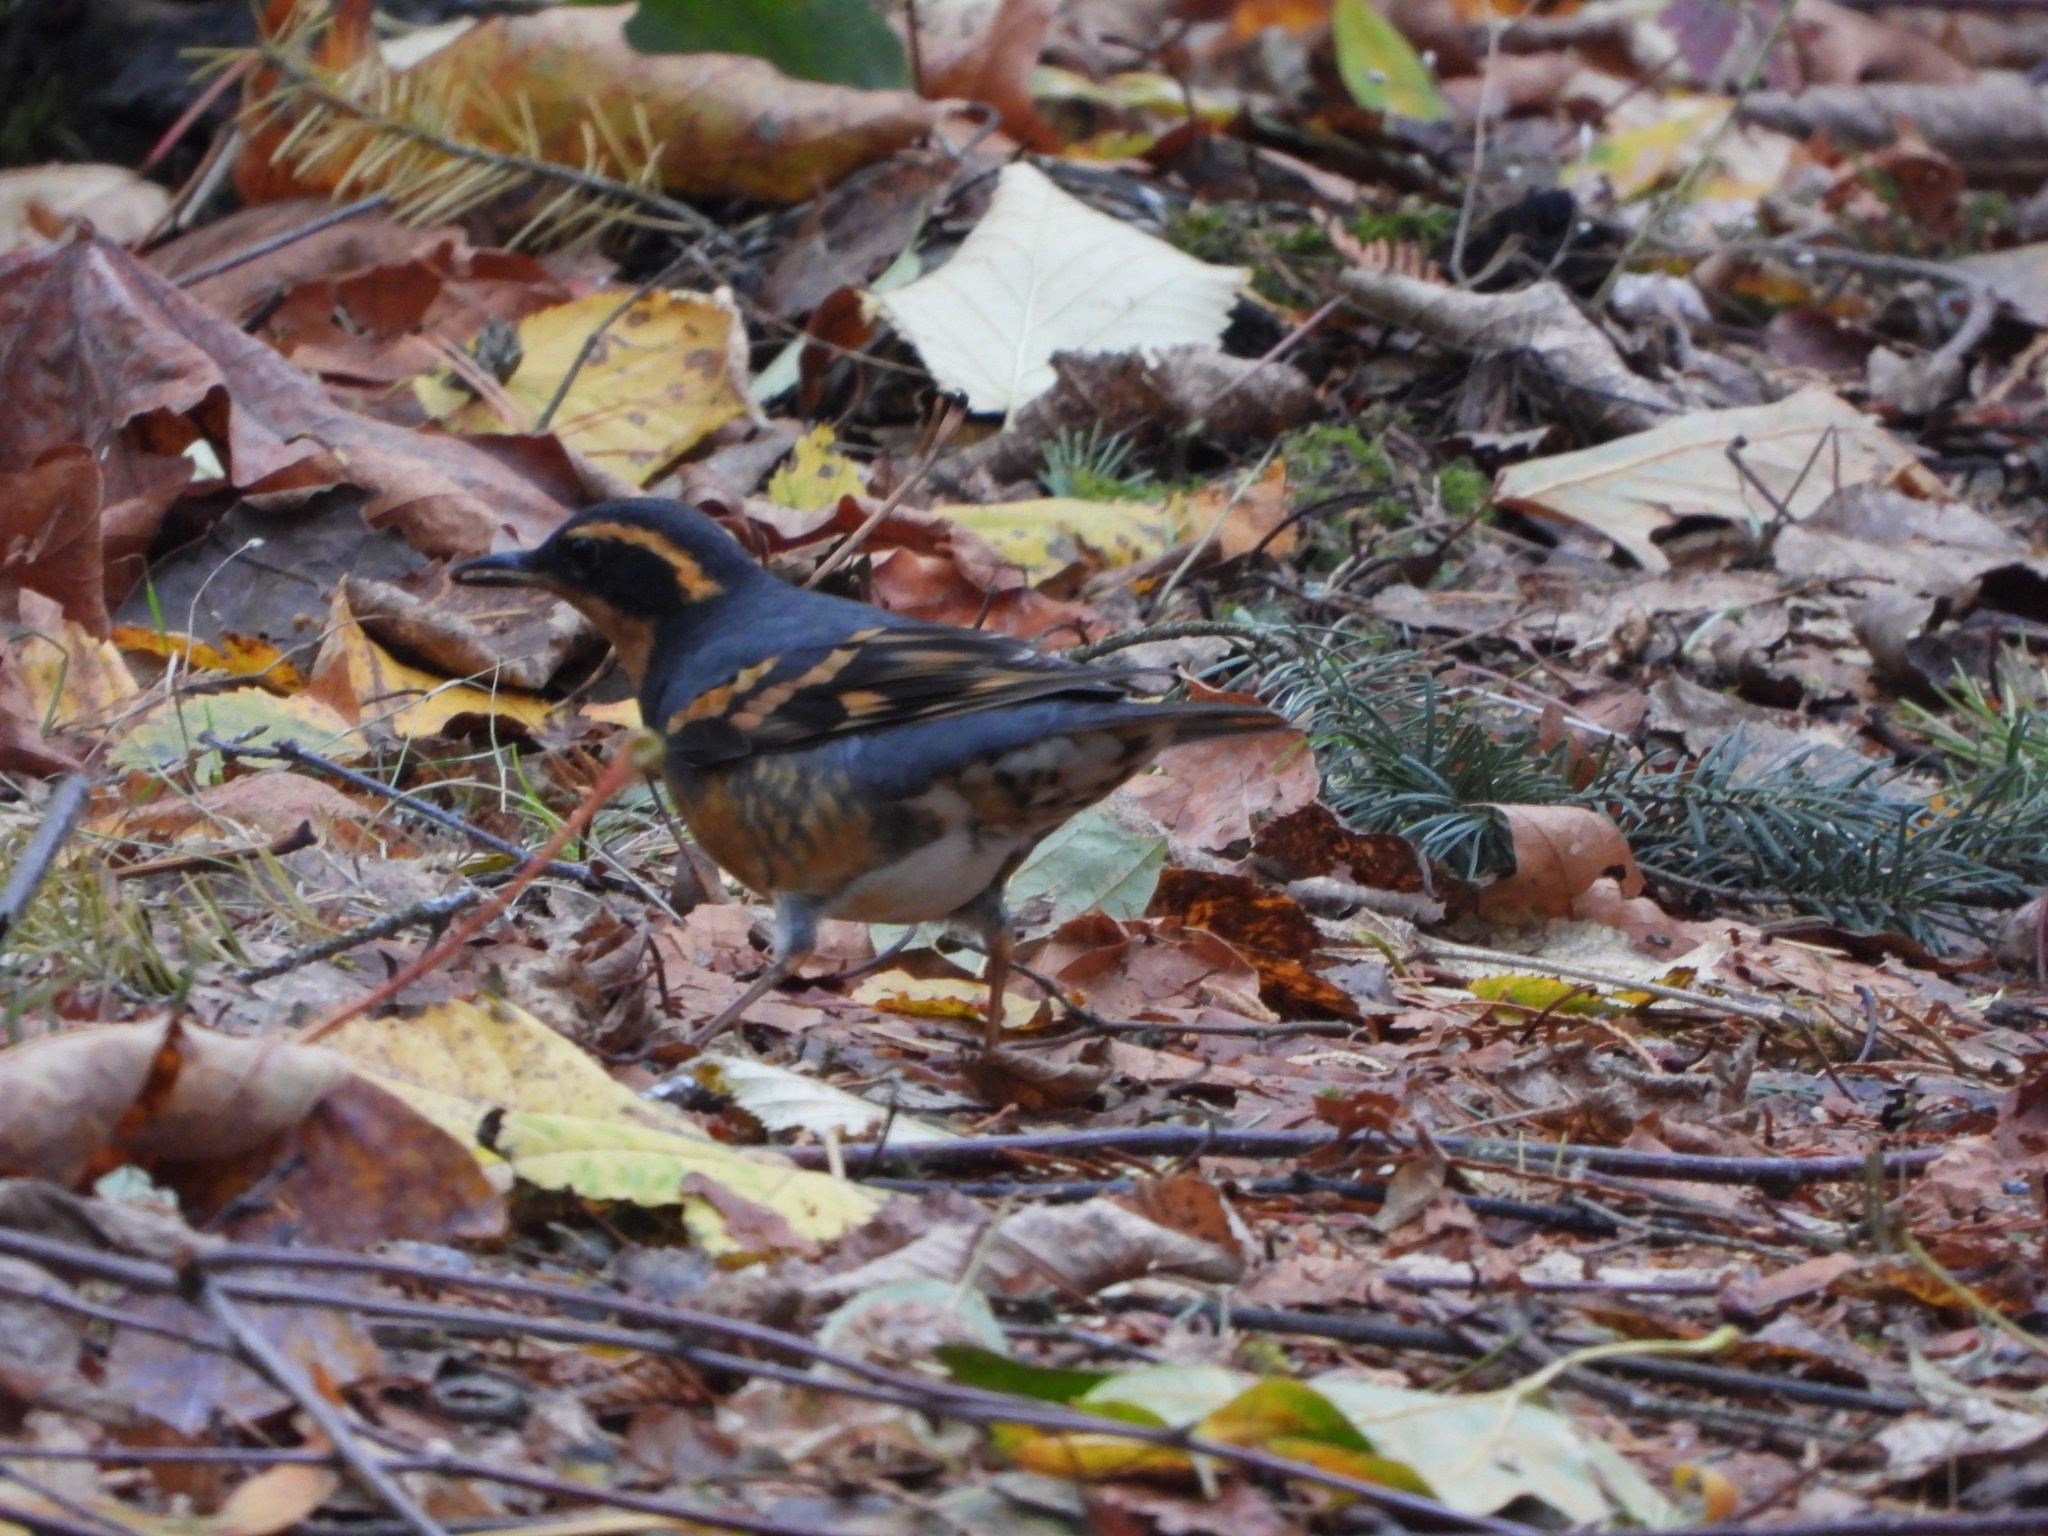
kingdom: Animalia
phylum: Chordata
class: Aves
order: Passeriformes
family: Turdidae
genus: Ixoreus
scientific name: Ixoreus naevius
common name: Varied thrush
